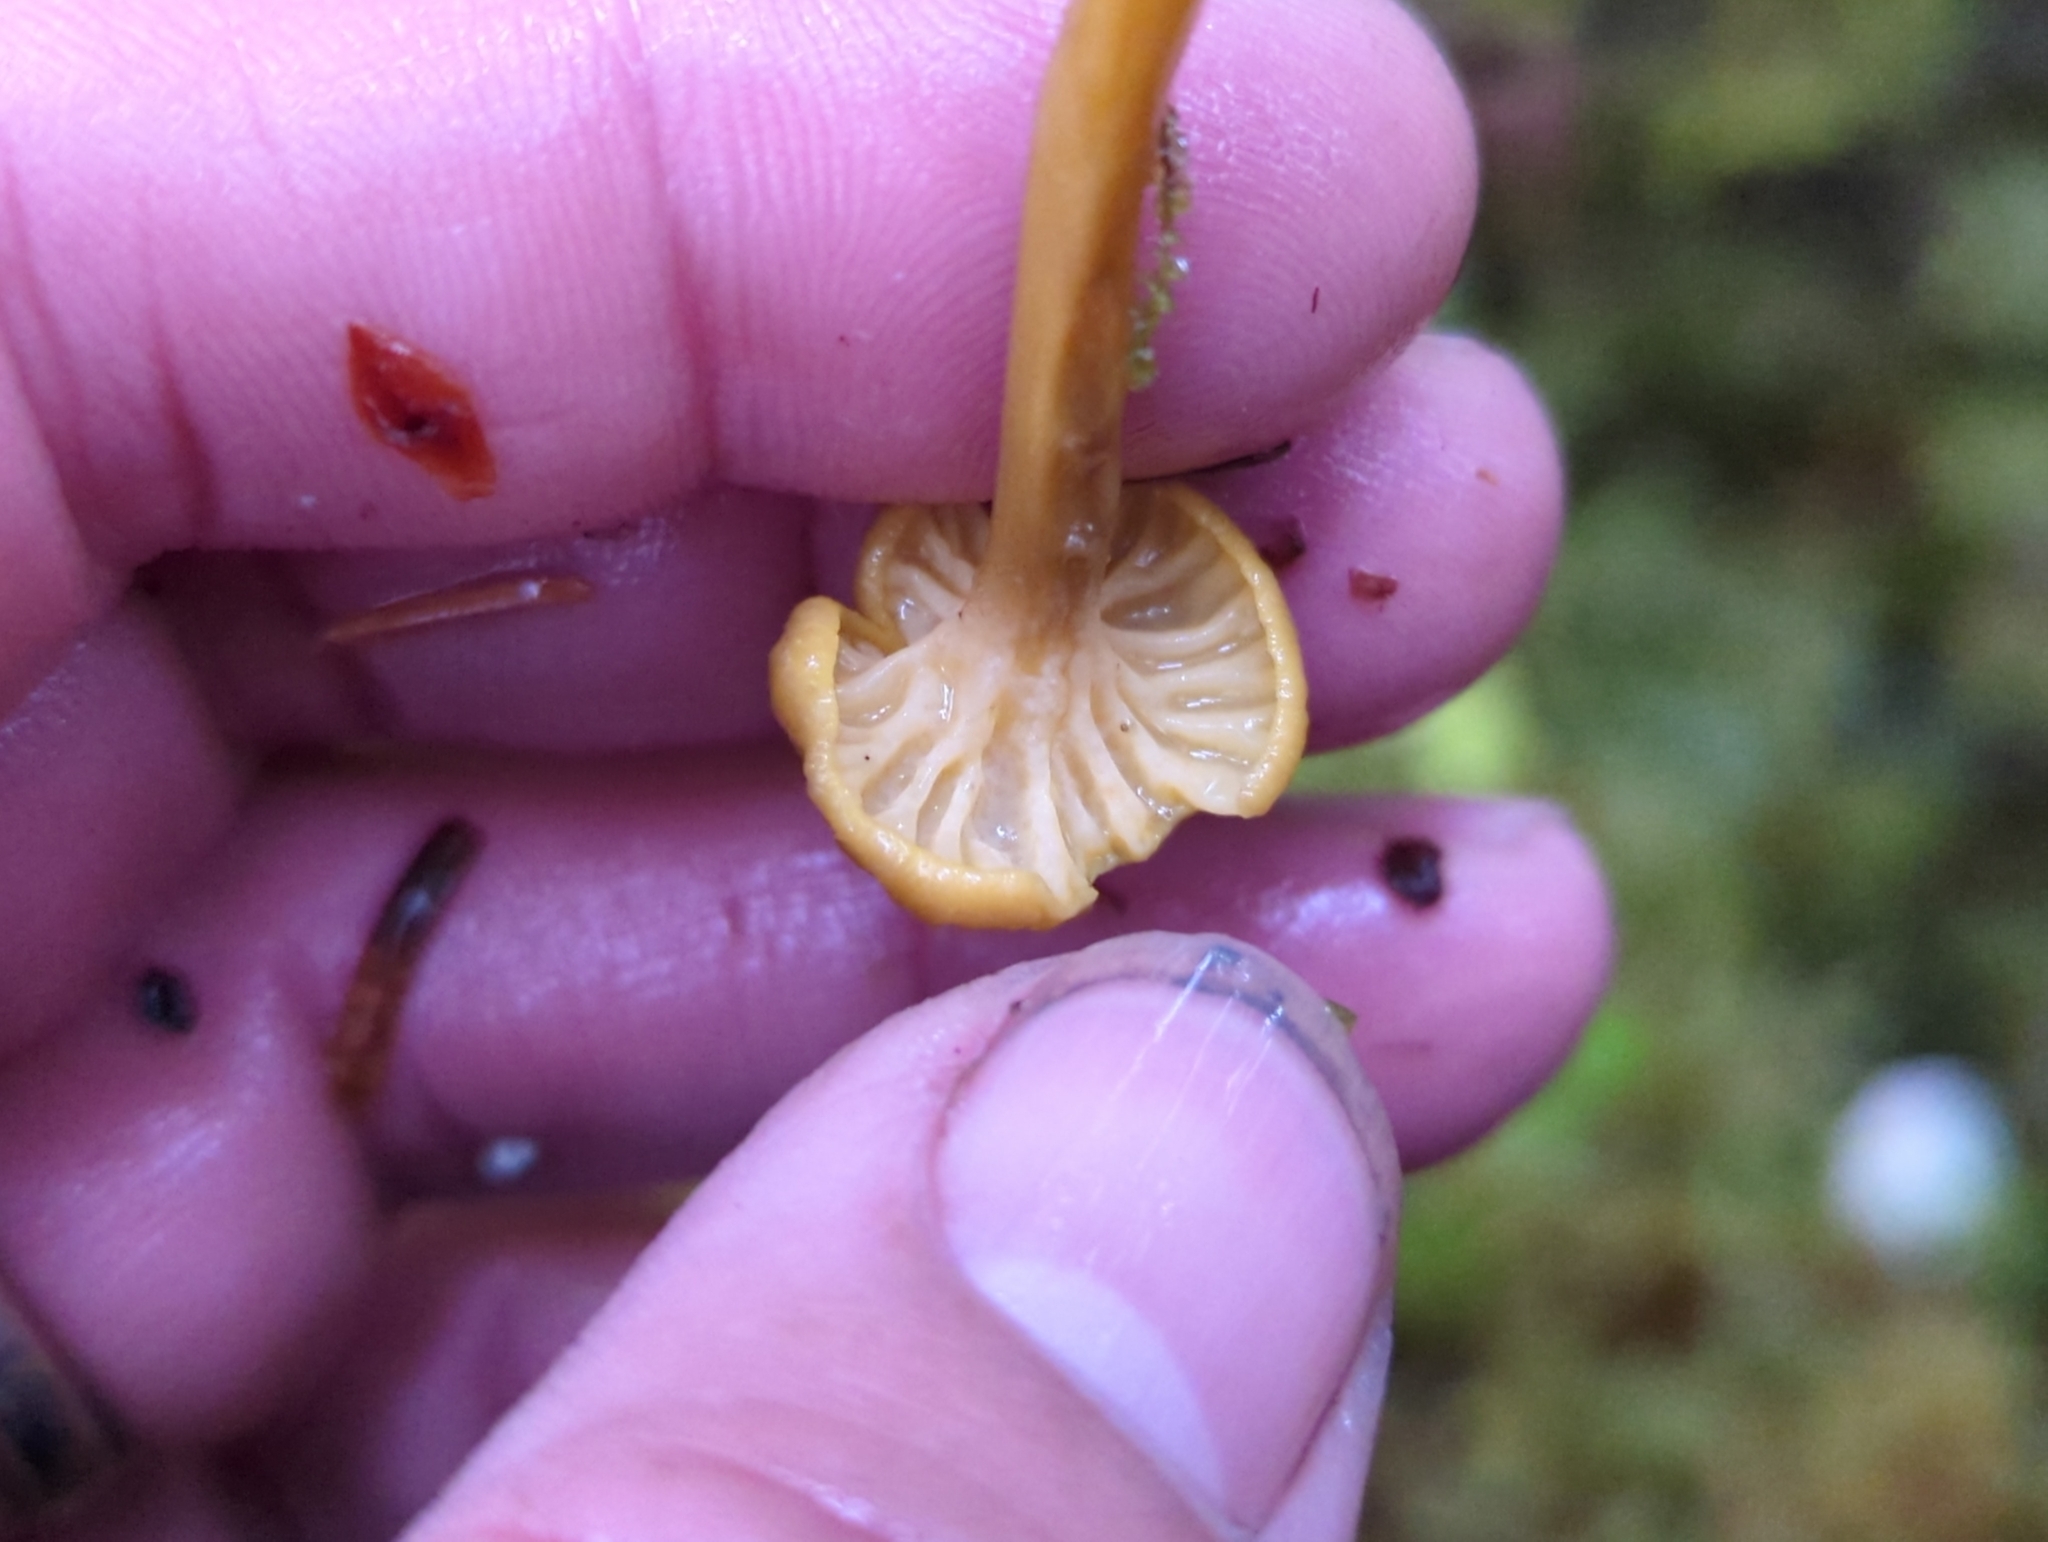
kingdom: Fungi
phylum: Basidiomycota
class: Agaricomycetes
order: Cantharellales
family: Hydnaceae
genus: Craterellus
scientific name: Craterellus tubaeformis
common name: Yellowfoot
